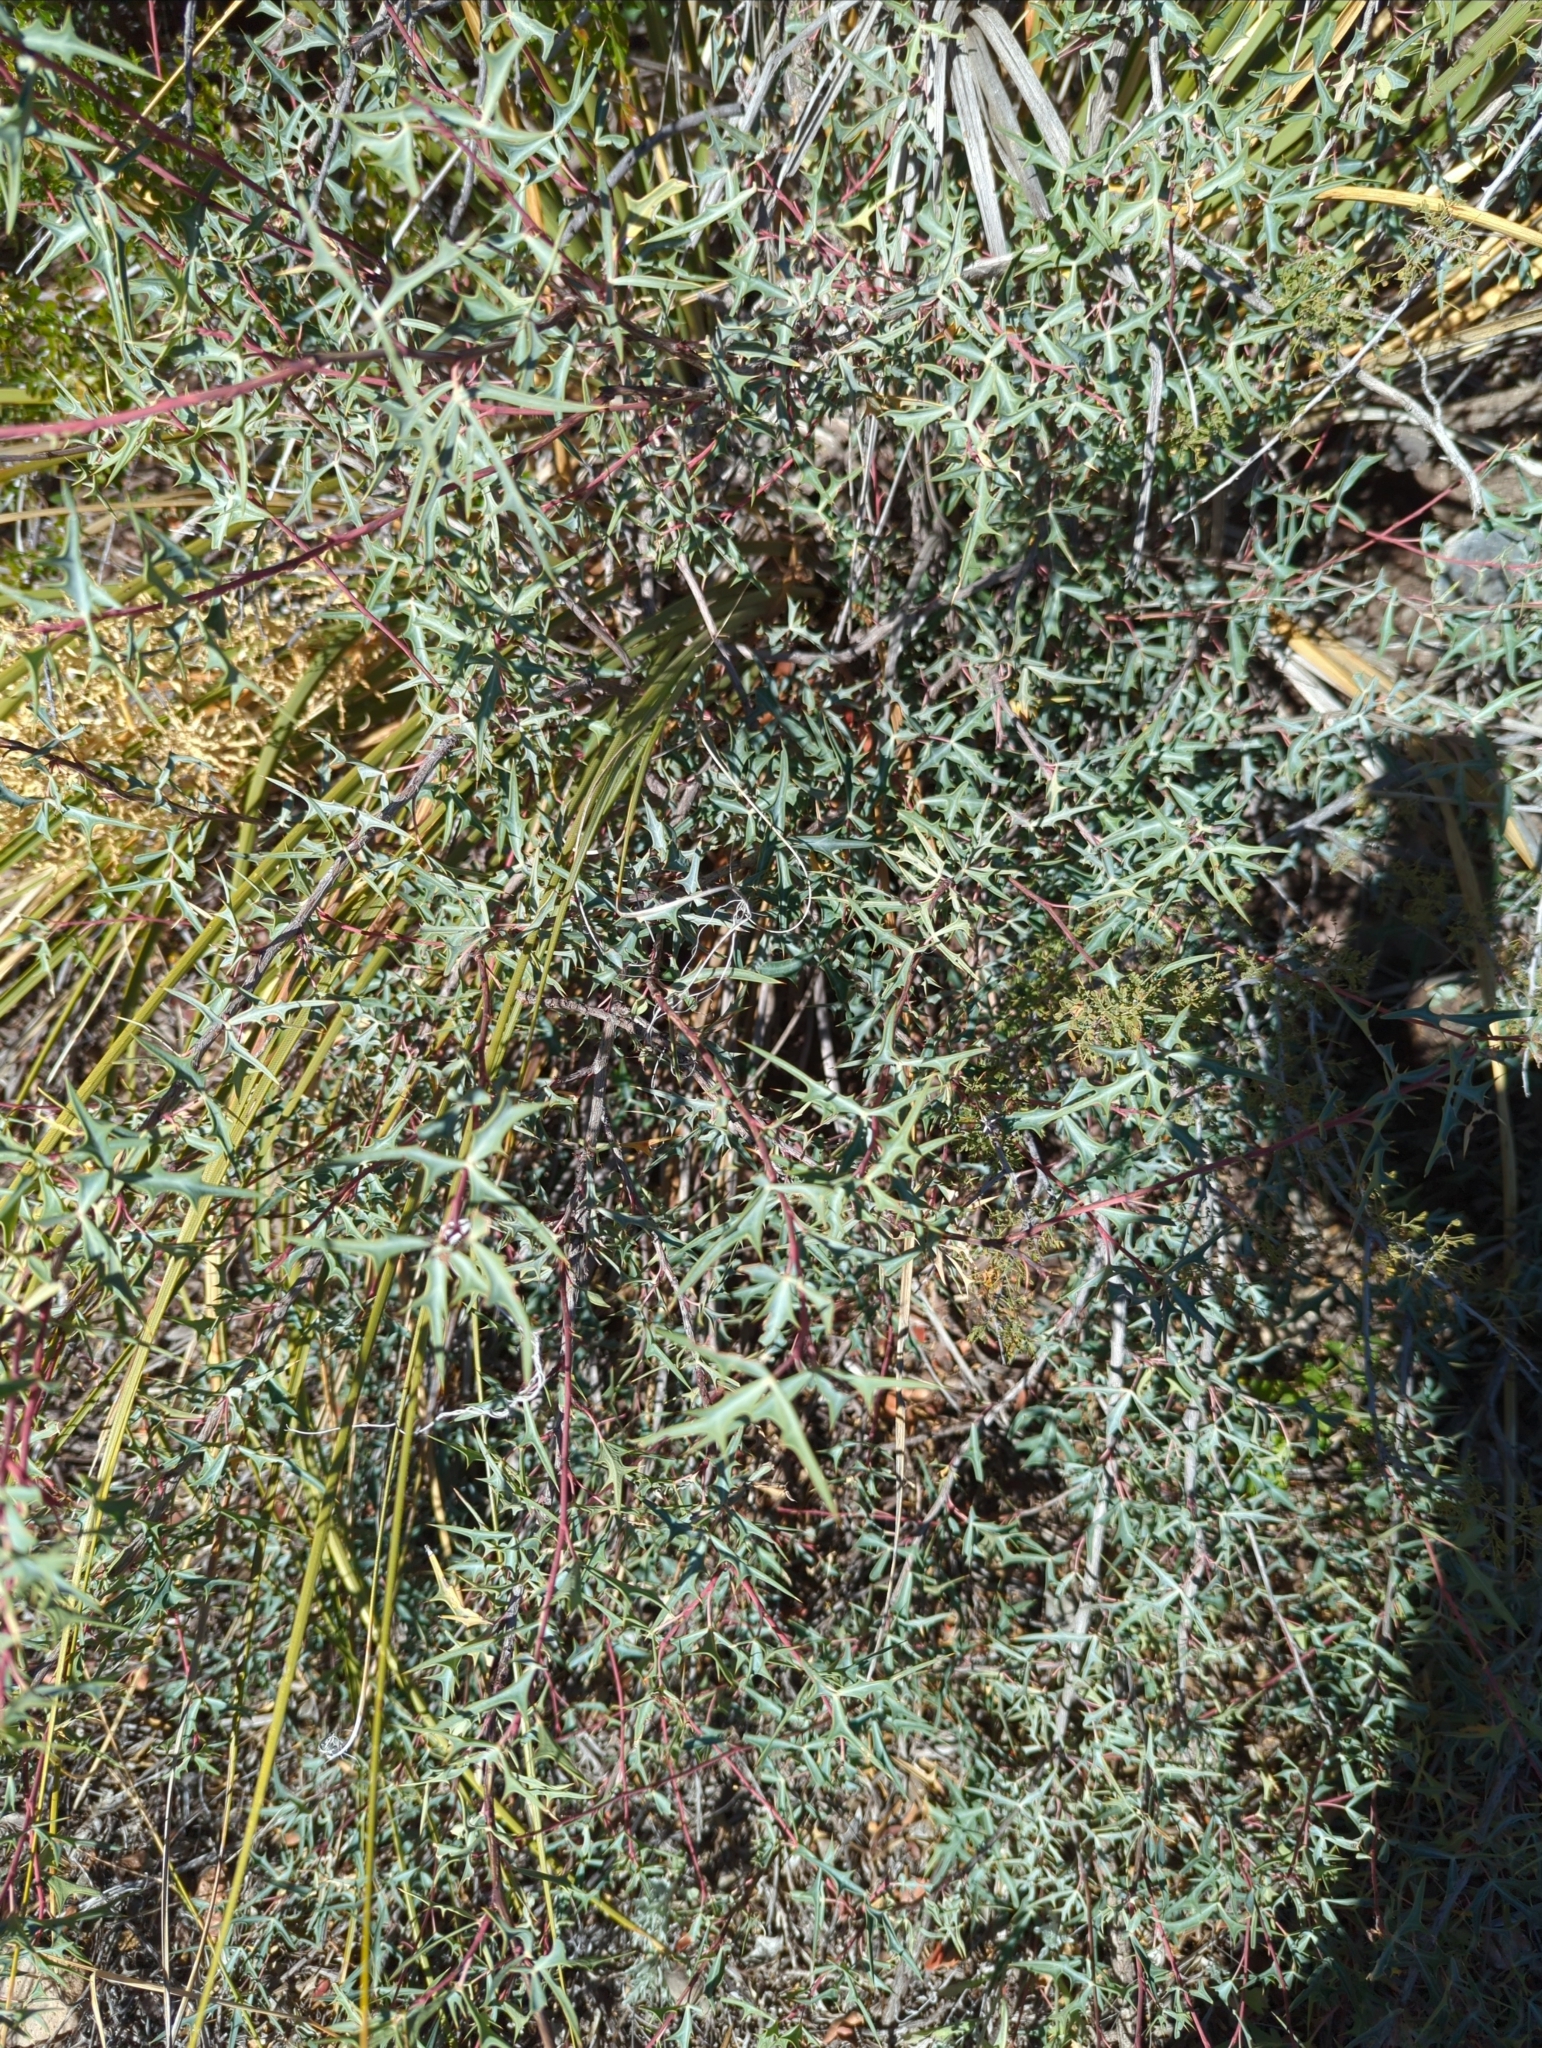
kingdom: Plantae
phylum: Tracheophyta
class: Magnoliopsida
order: Ranunculales
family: Berberidaceae
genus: Alloberberis
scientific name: Alloberberis trifoliolata
